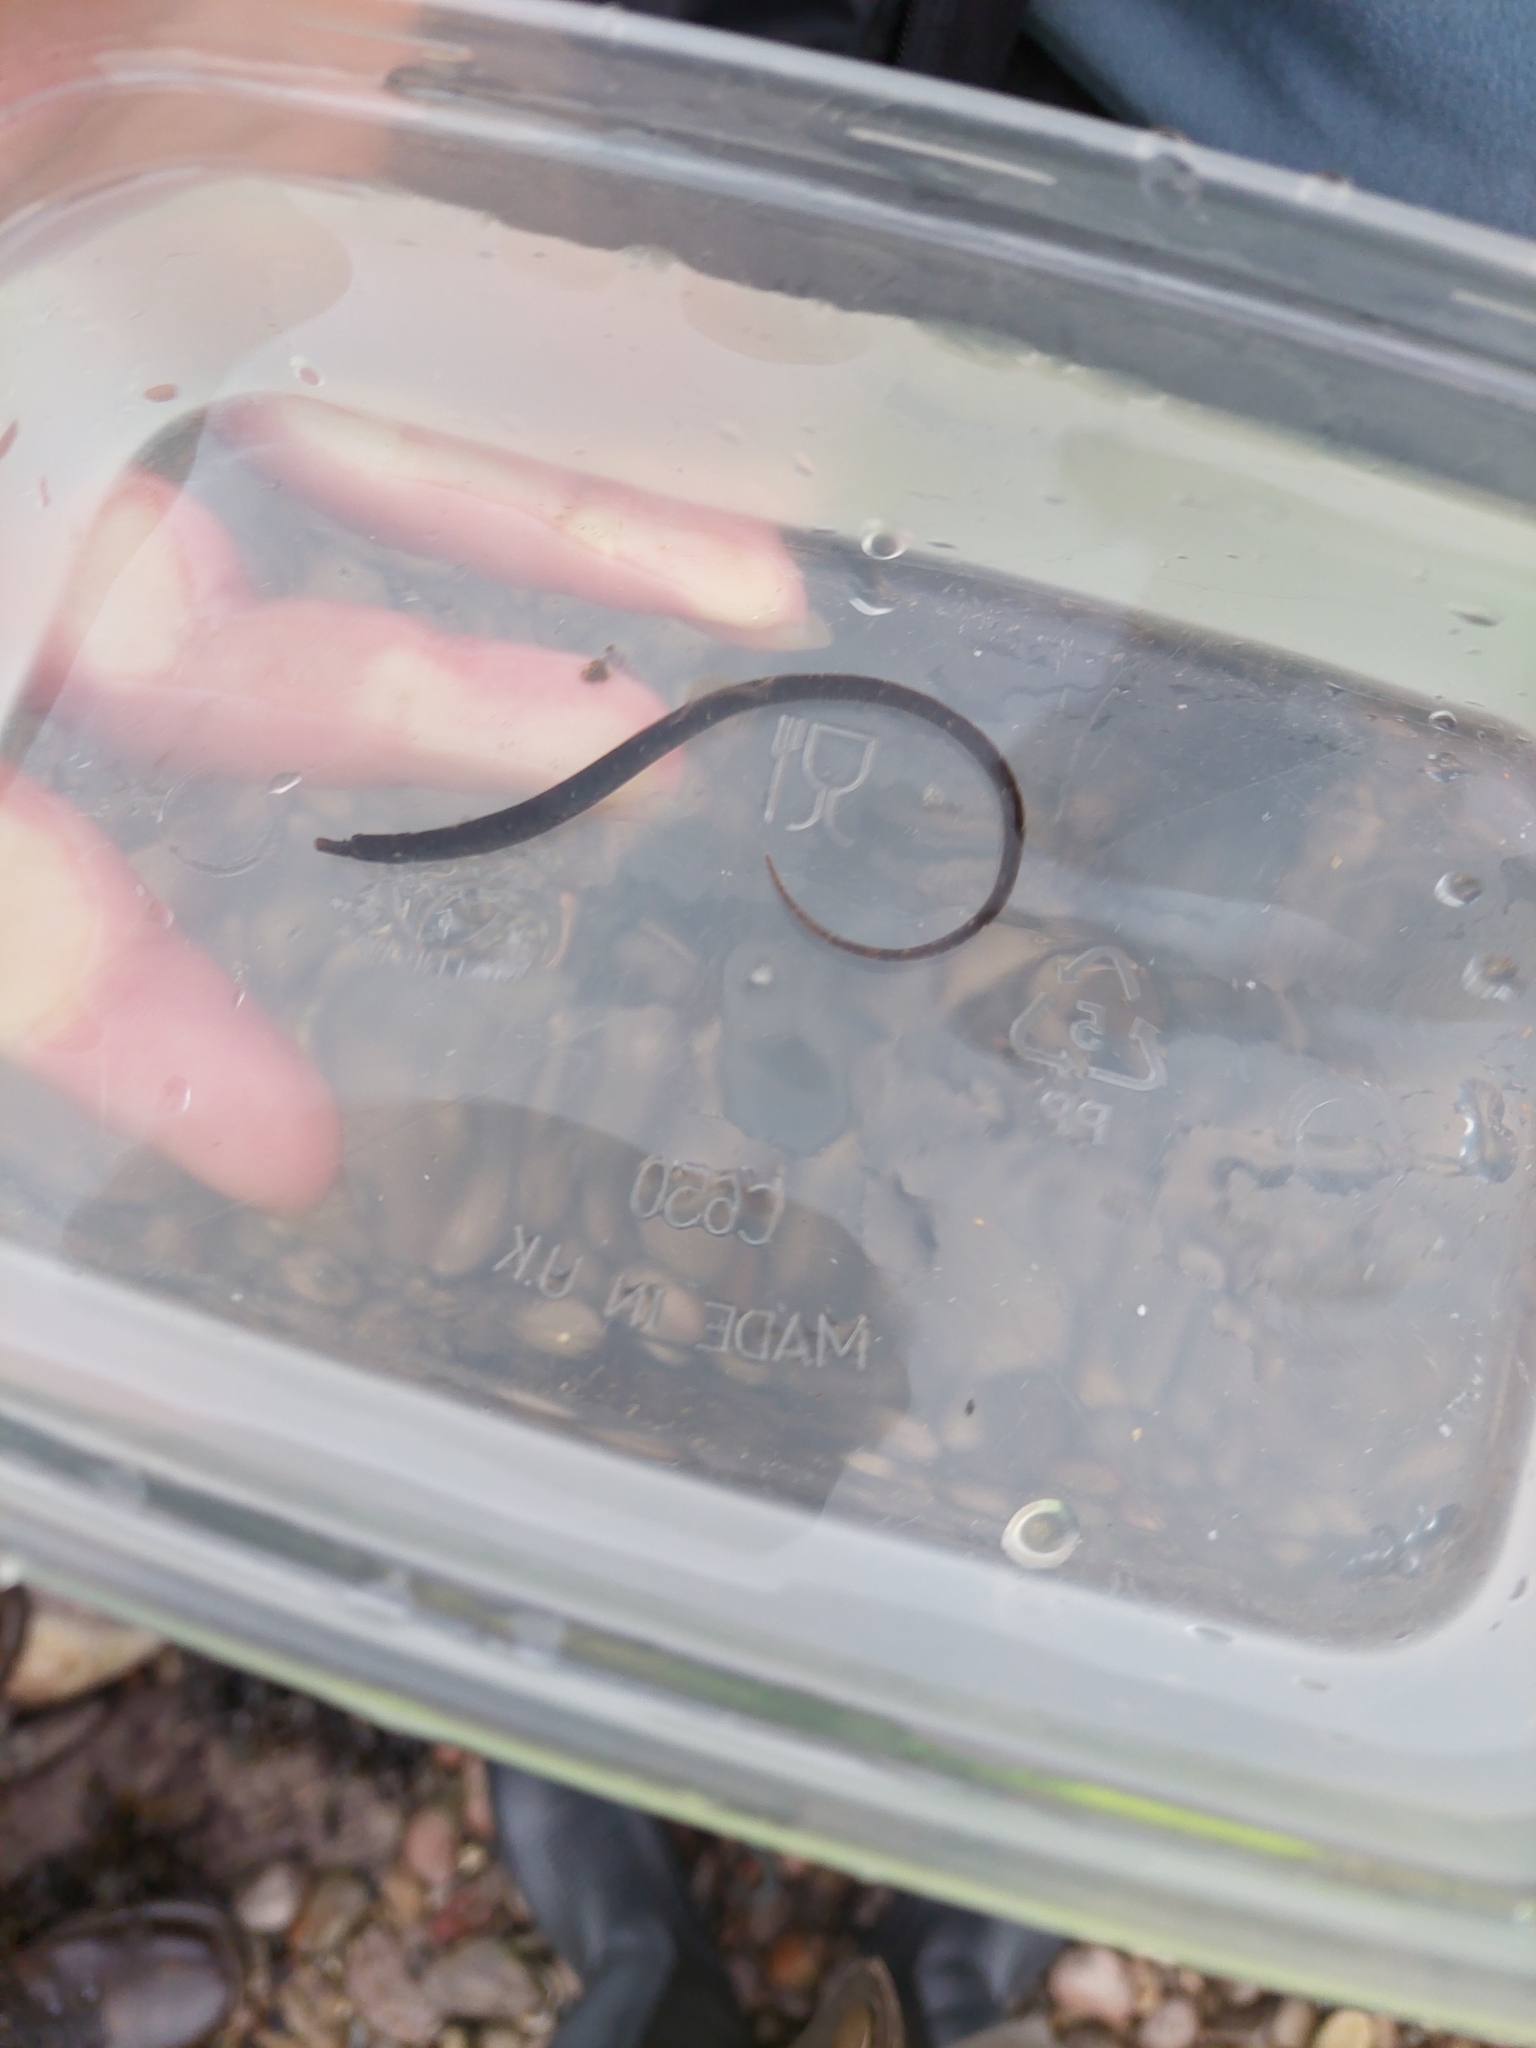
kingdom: Animalia
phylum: Chordata
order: Syngnathiformes
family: Syngnathidae
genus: Nerophis
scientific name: Nerophis lumbriciformis
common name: Worm pipefish
